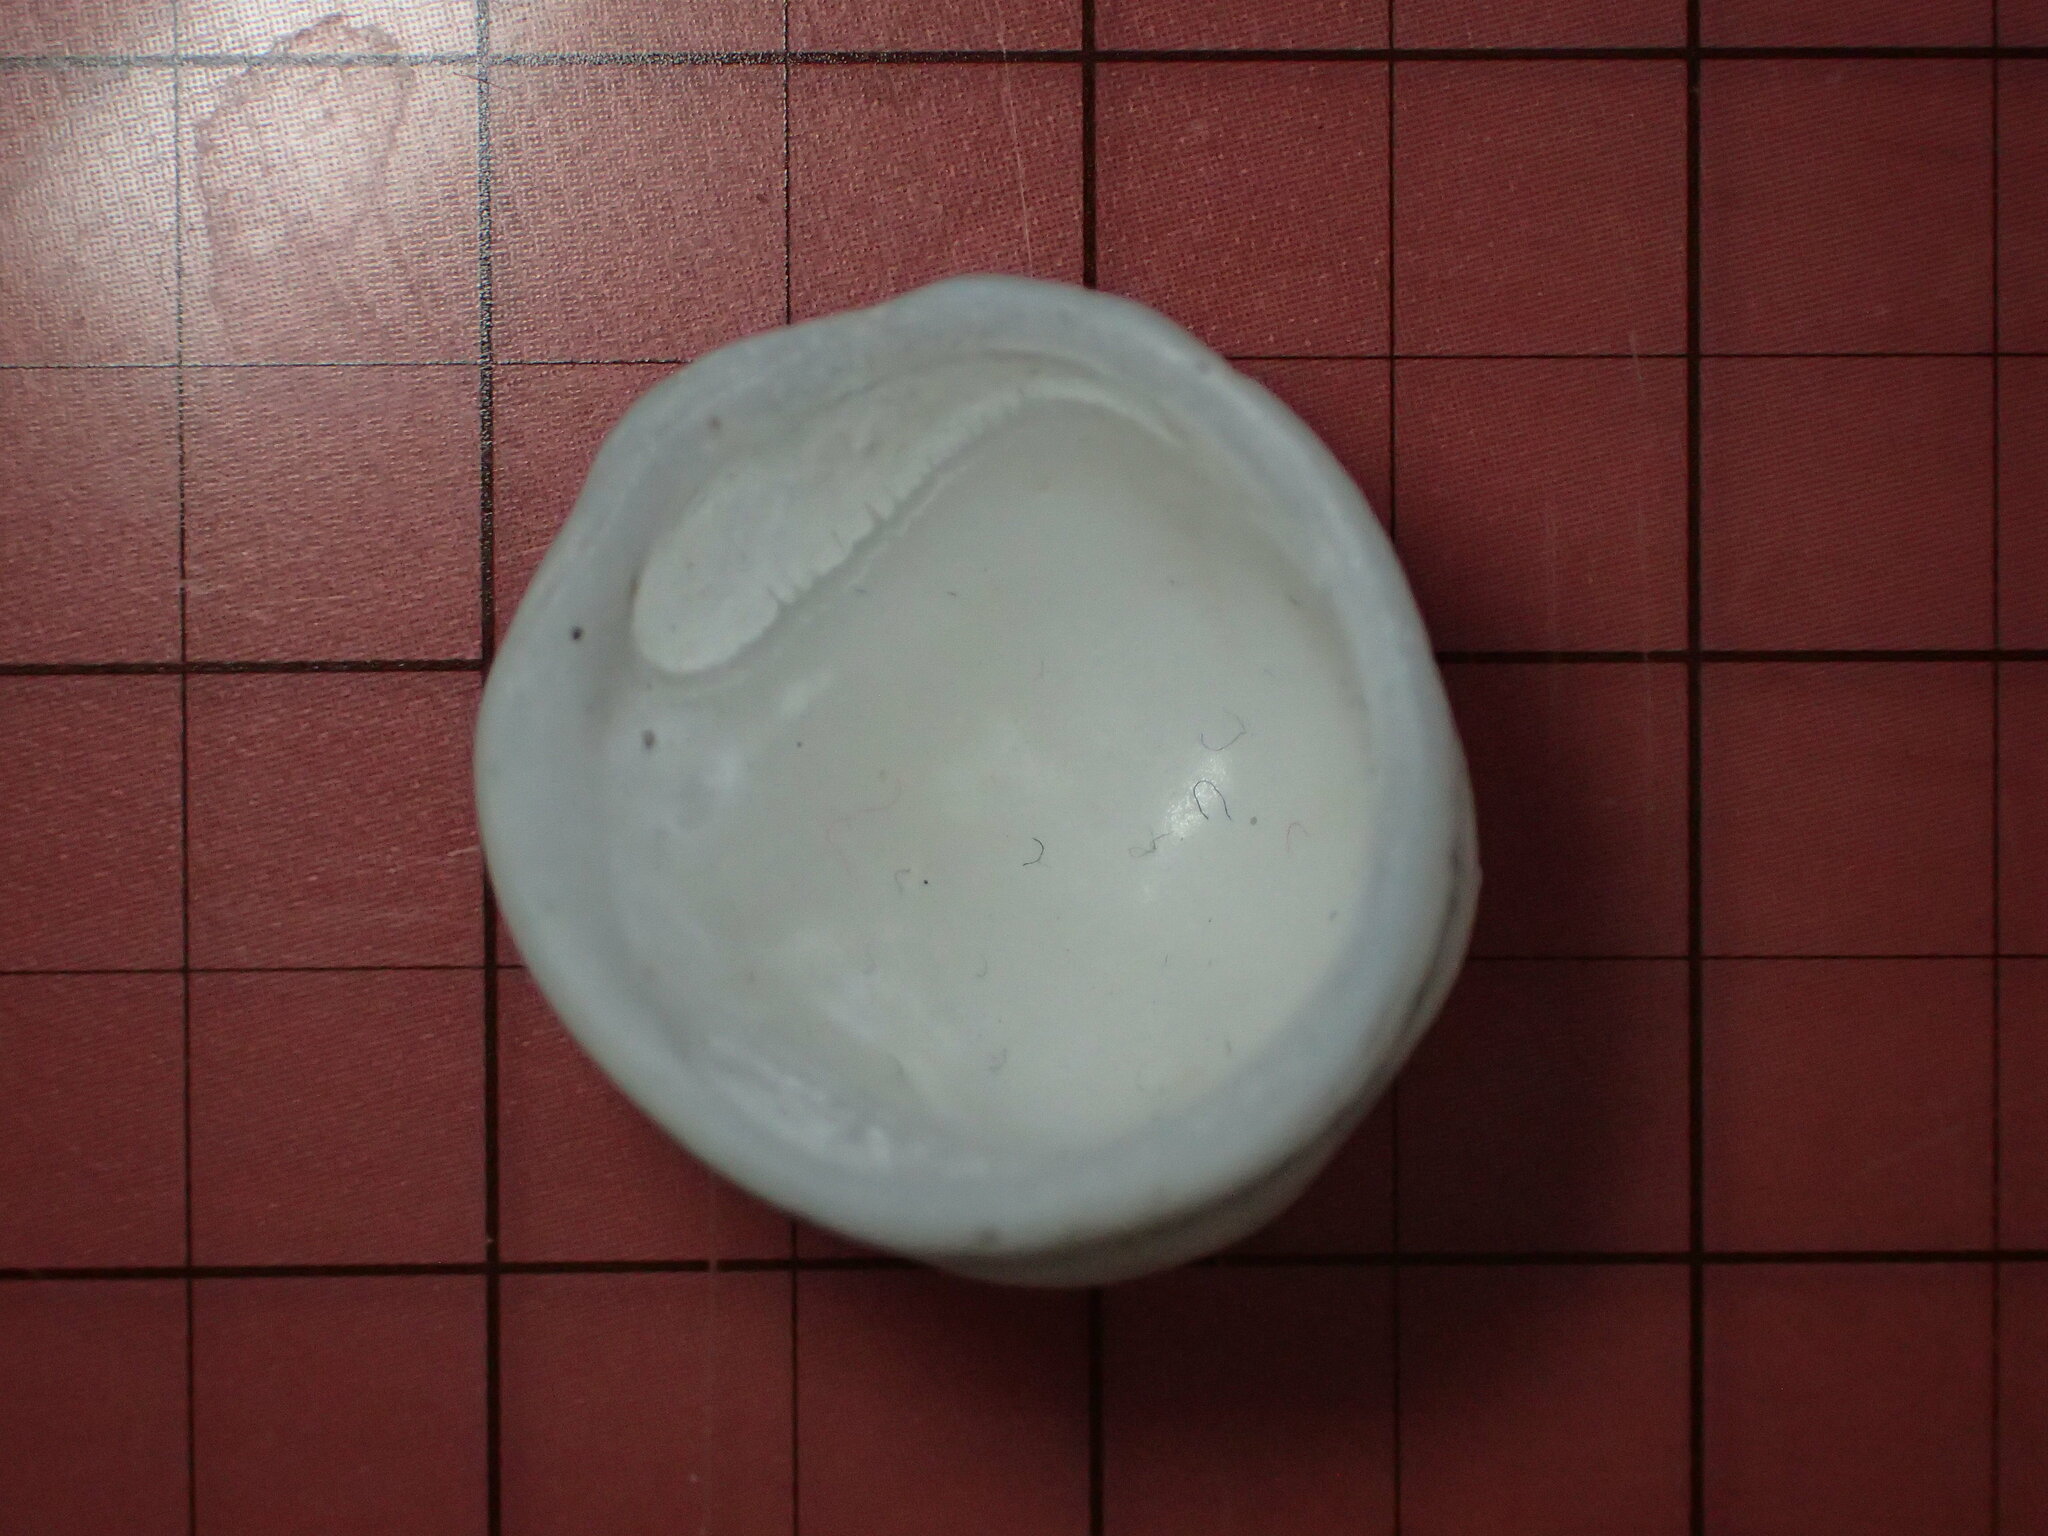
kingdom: Animalia
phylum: Mollusca
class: Gastropoda
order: Littorinimorpha
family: Hipponicidae
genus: Hipponix
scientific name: Hipponix panamensis
